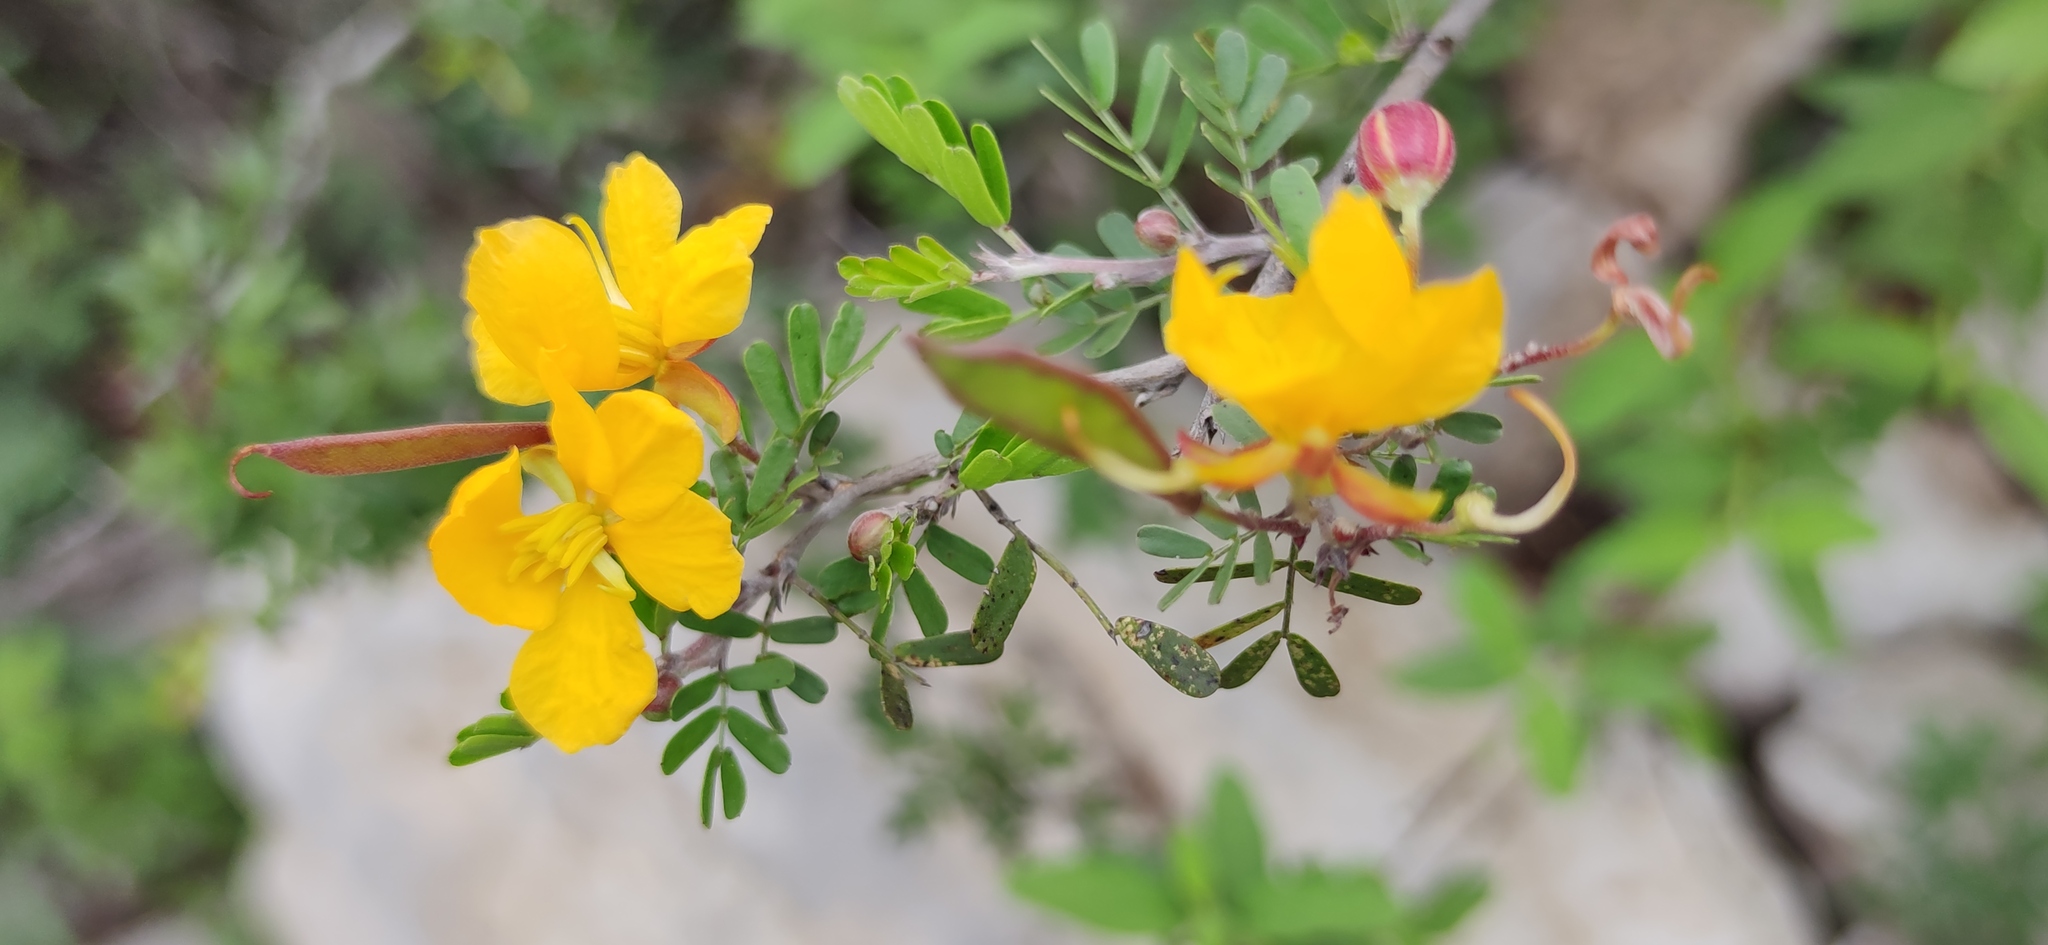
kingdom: Plantae
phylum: Tracheophyta
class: Magnoliopsida
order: Fabales
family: Fabaceae
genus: Chamaecrista
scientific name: Chamaecrista greggii
